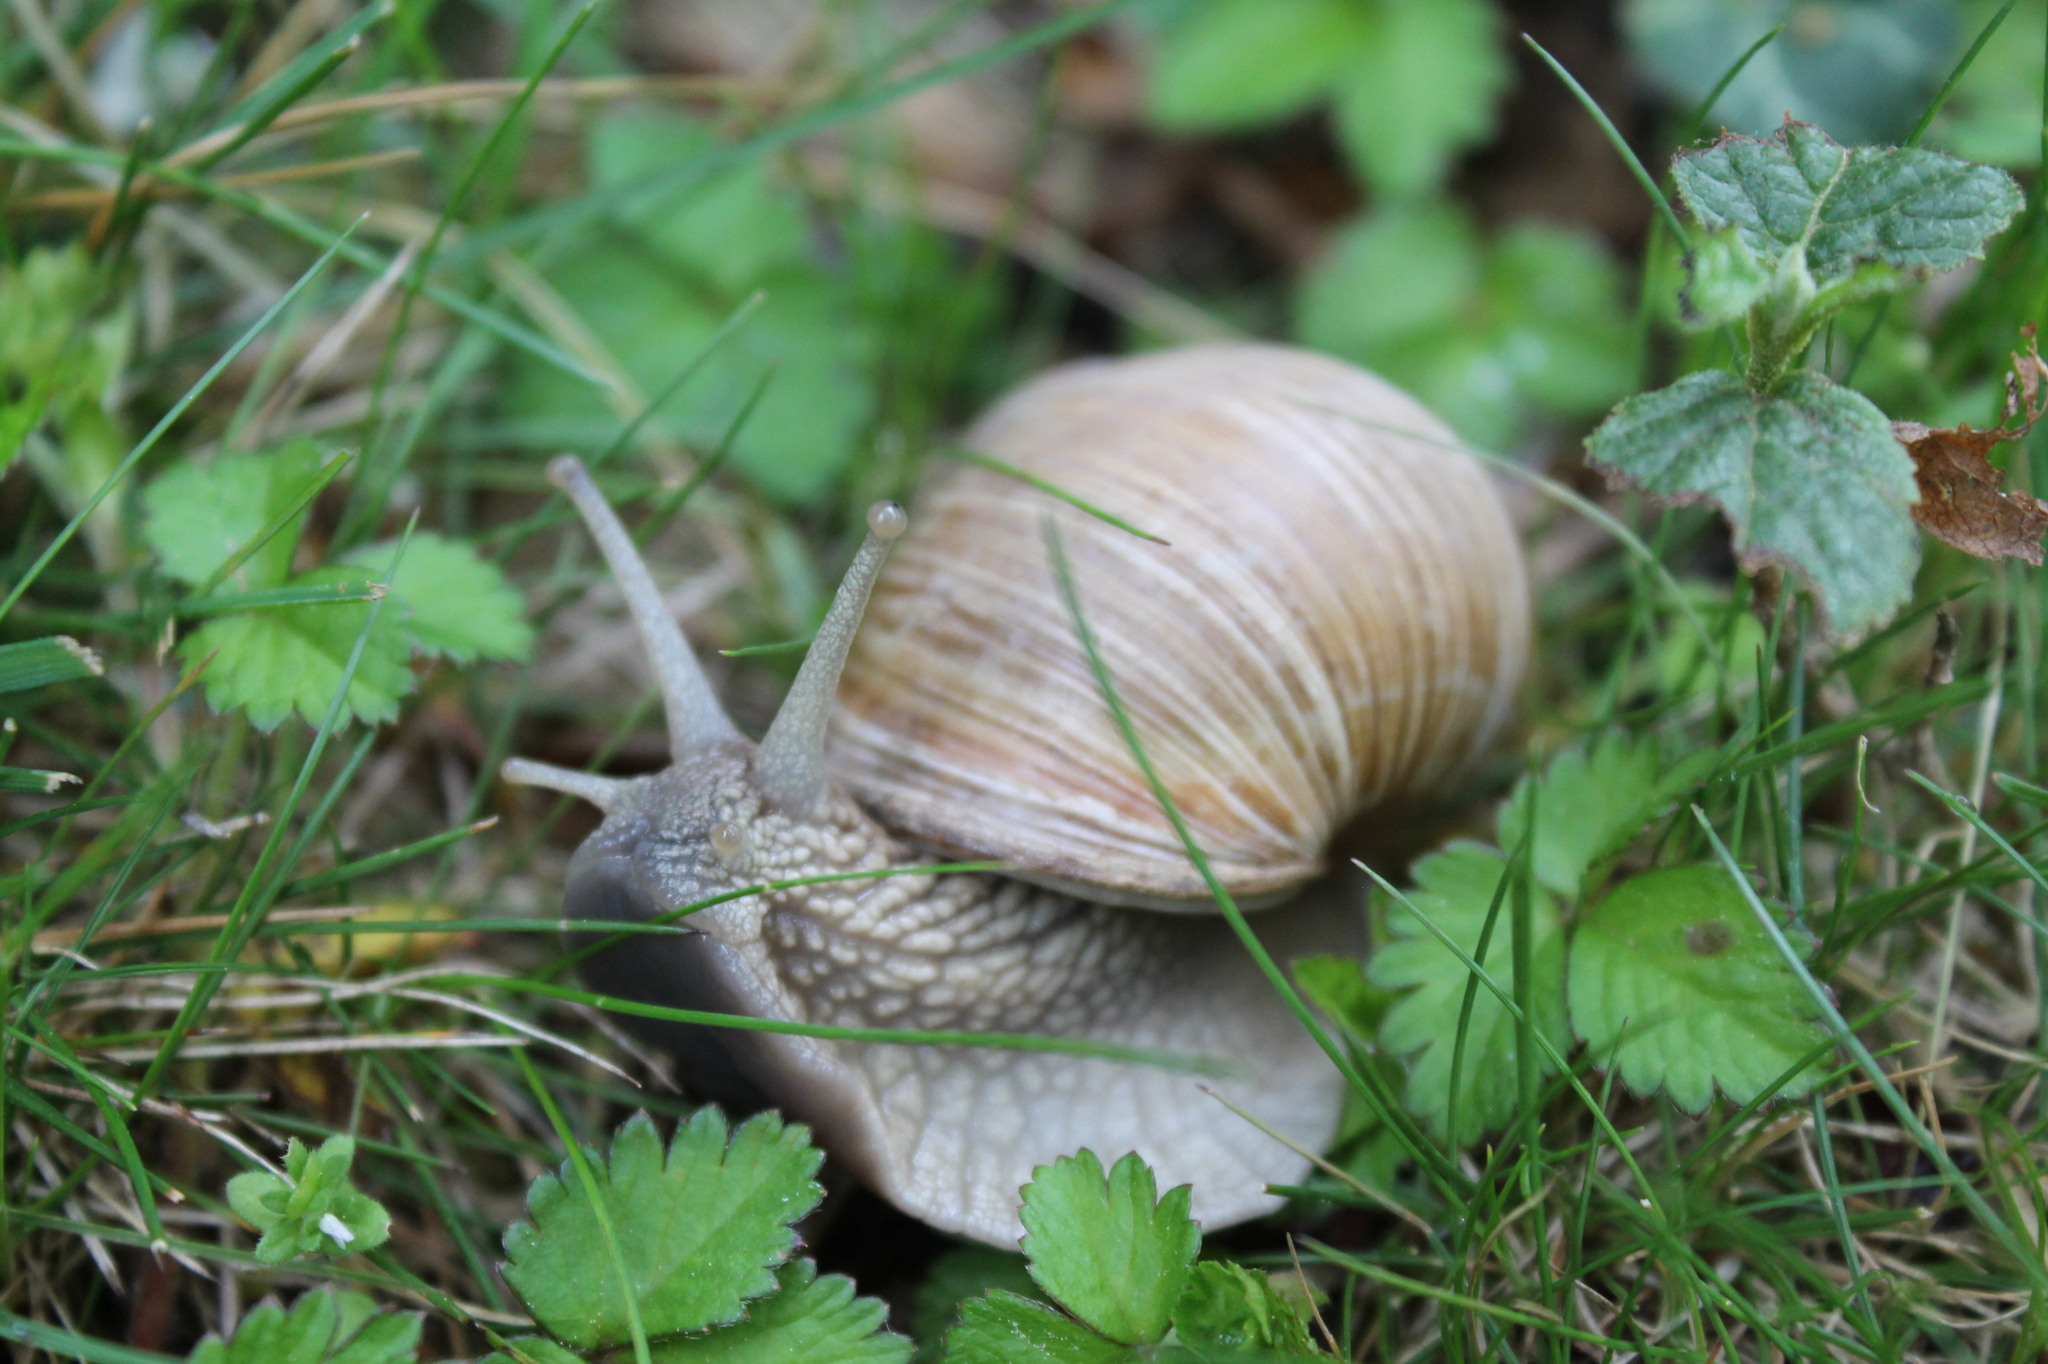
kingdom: Animalia
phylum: Mollusca
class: Gastropoda
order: Stylommatophora
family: Helicidae
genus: Helix
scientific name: Helix pomatia
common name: Roman snail
